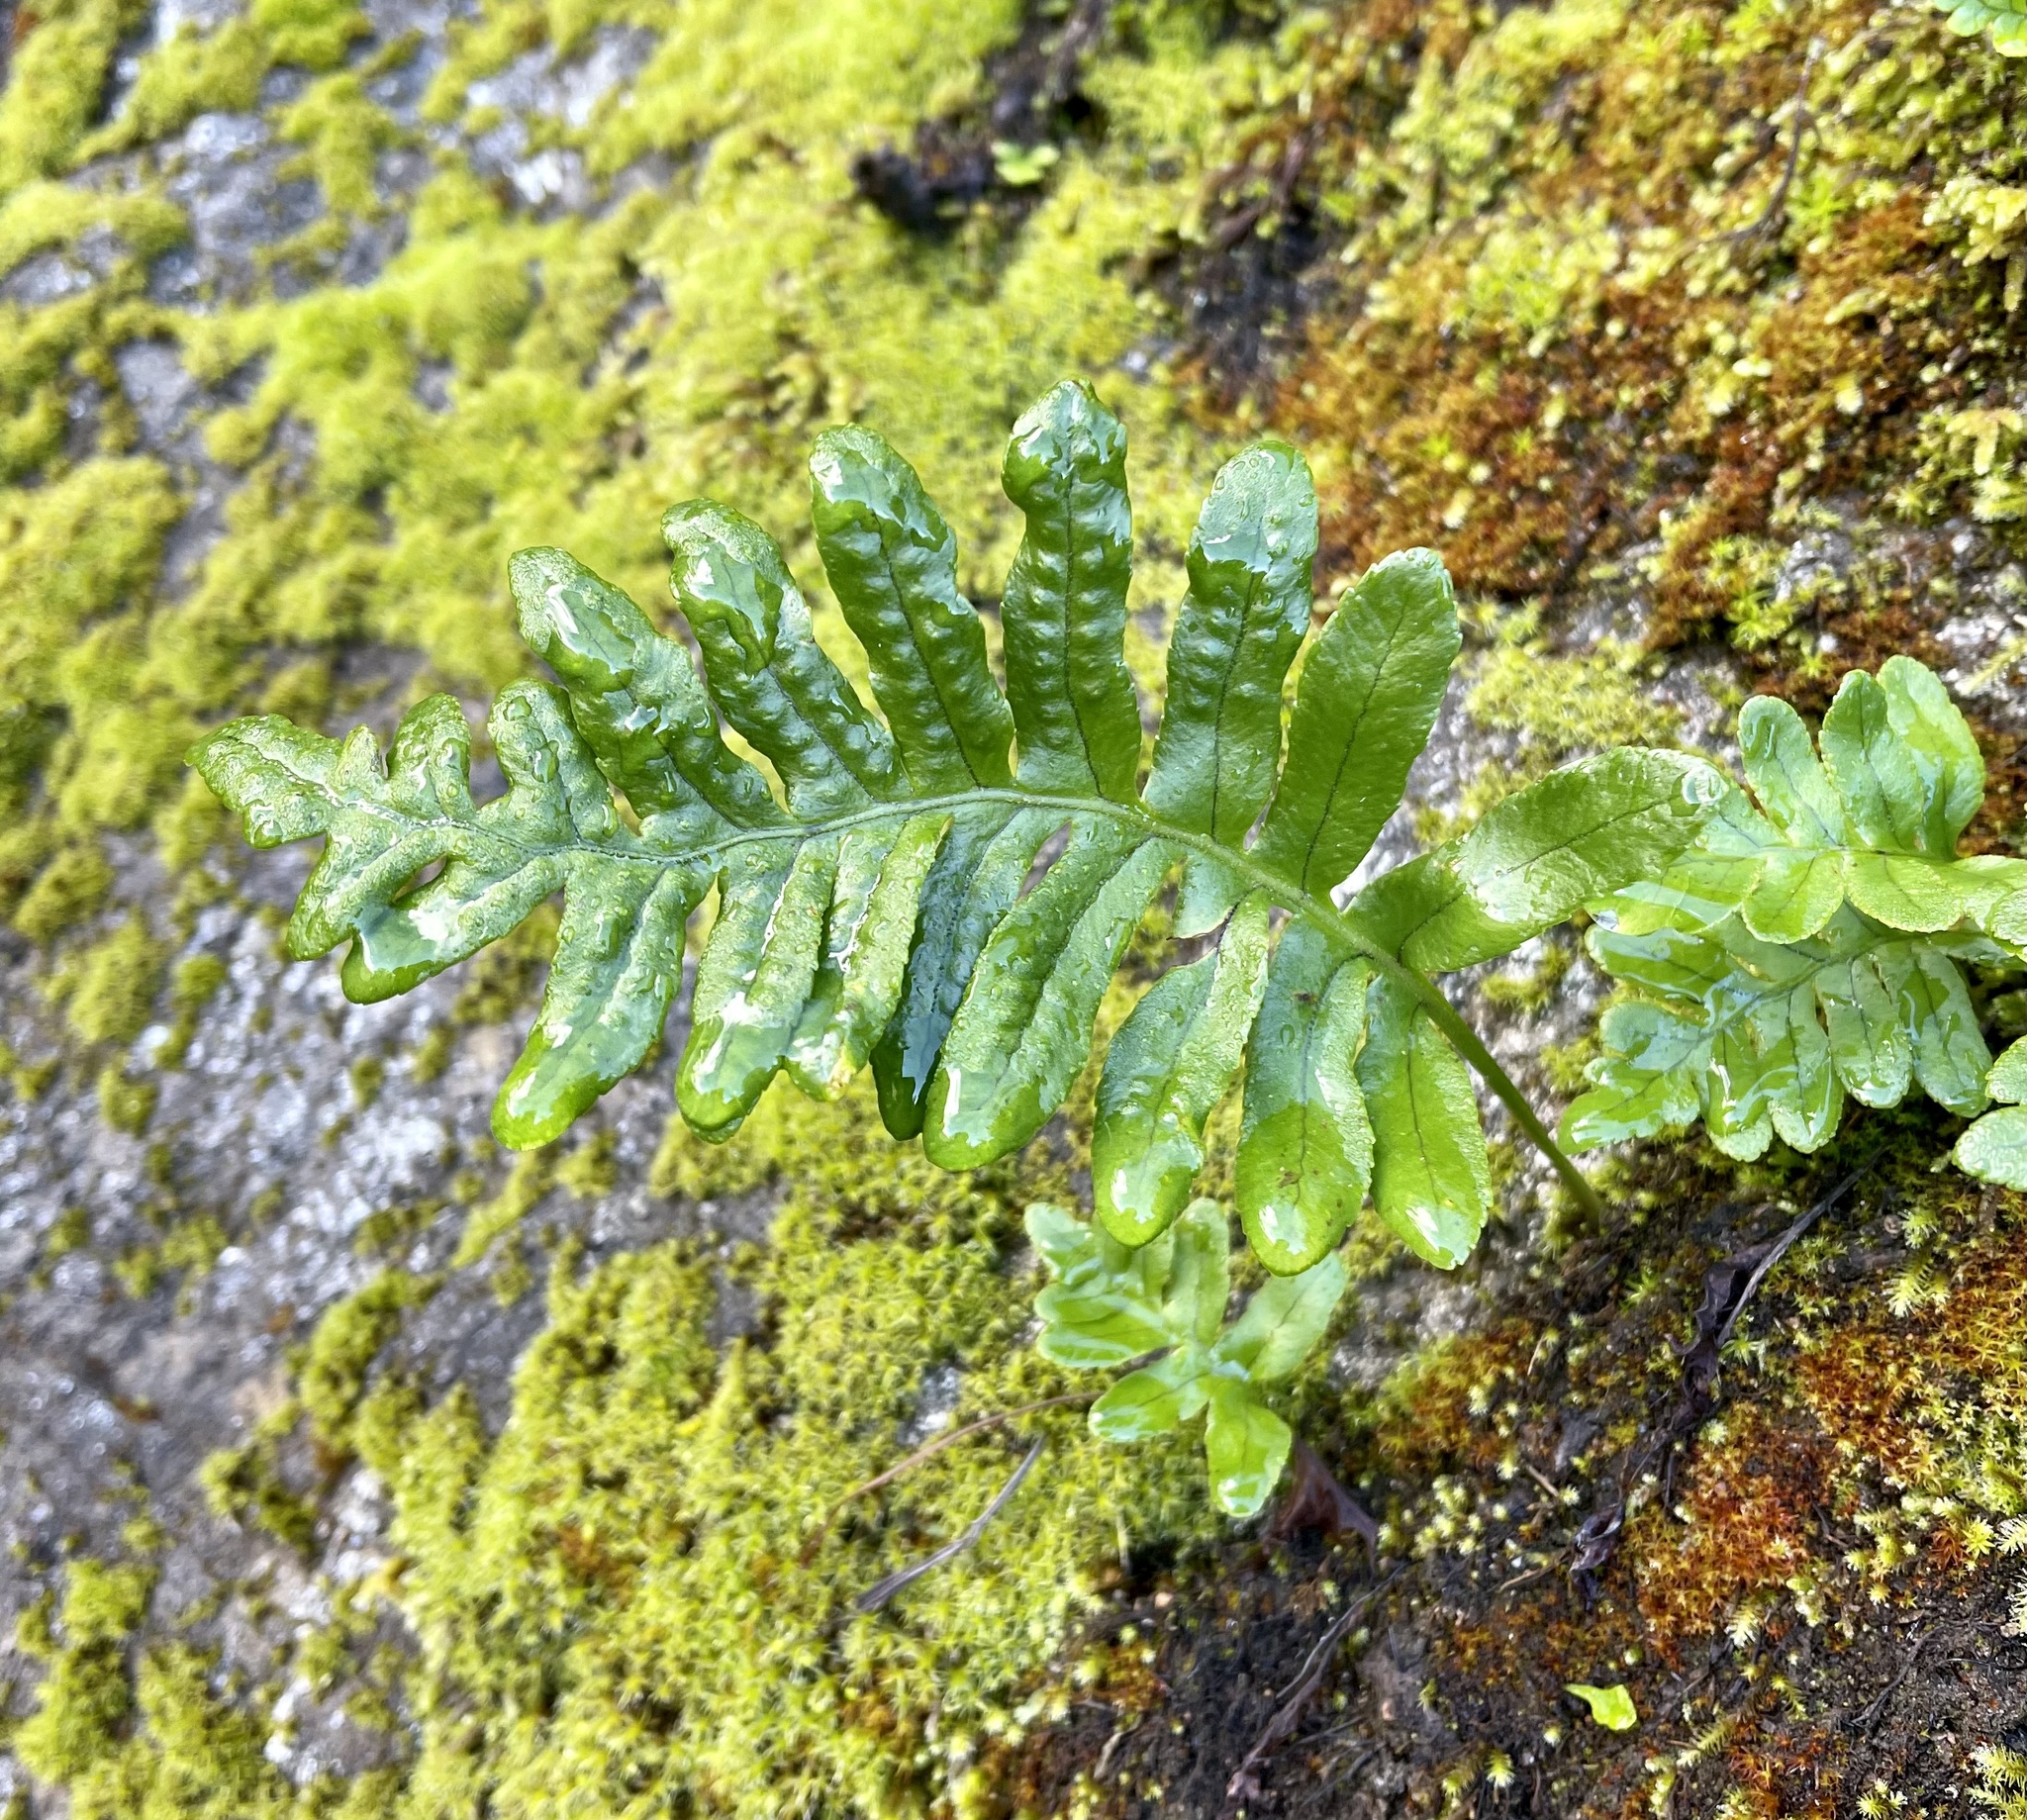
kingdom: Plantae
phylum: Tracheophyta
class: Polypodiopsida
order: Polypodiales
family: Polypodiaceae
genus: Polypodium
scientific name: Polypodium californicum
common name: California polypody
